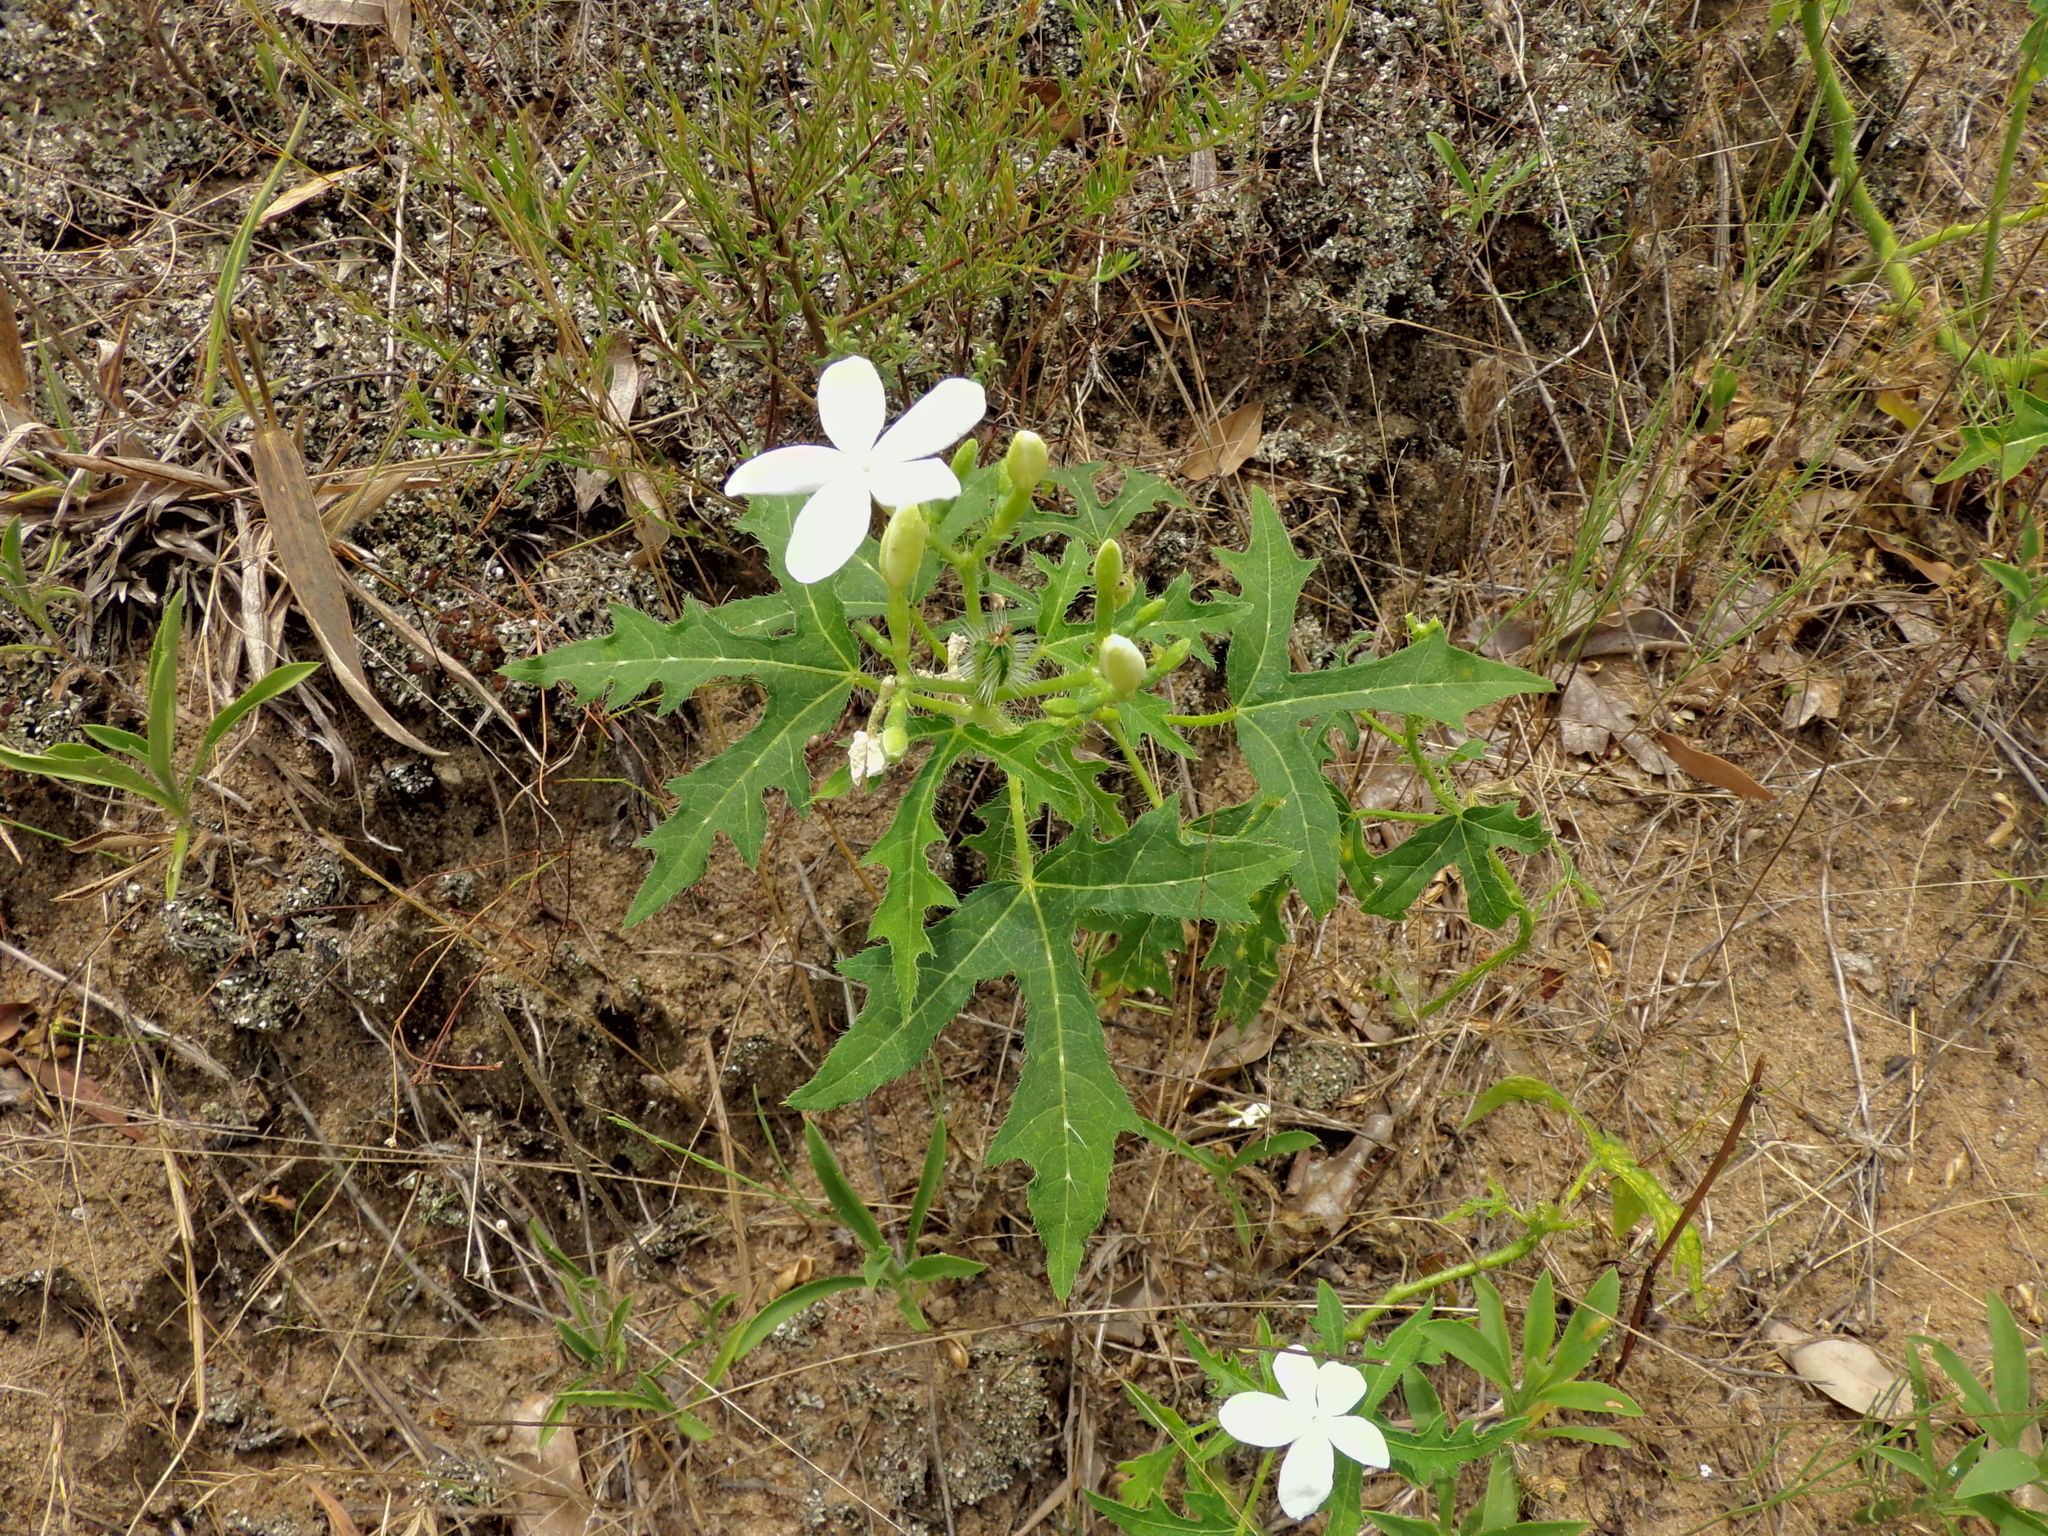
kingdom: Plantae
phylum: Tracheophyta
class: Magnoliopsida
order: Malpighiales
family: Euphorbiaceae
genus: Cnidoscolus
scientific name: Cnidoscolus stimulosus
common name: Bull-nettle
